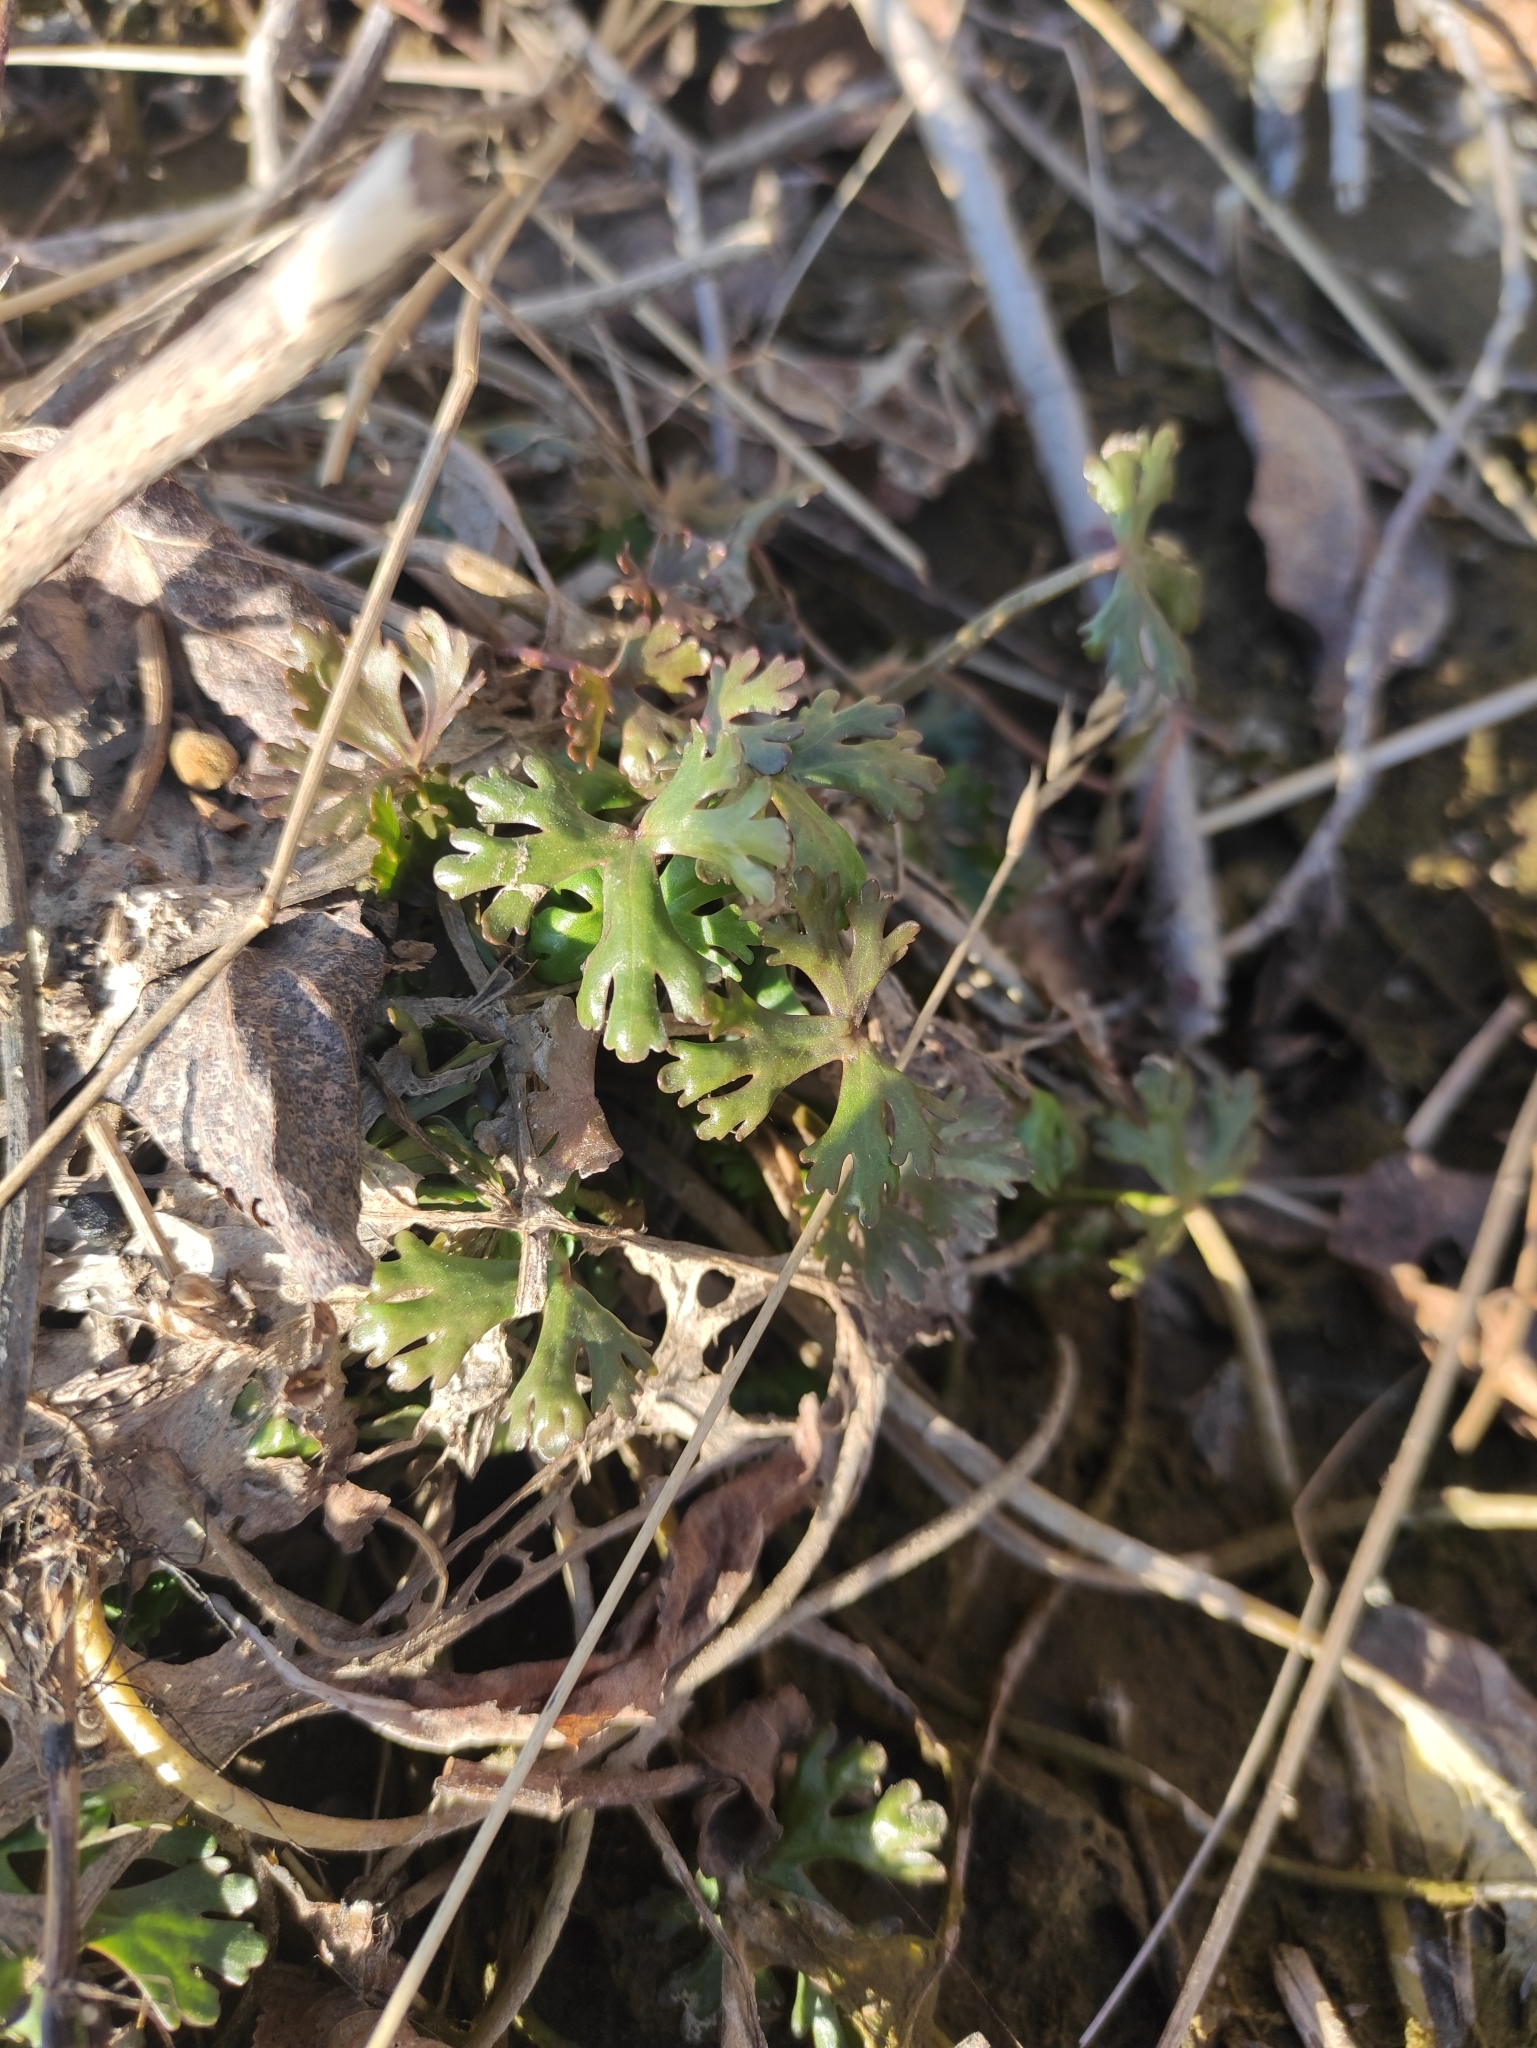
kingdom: Plantae
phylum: Tracheophyta
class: Magnoliopsida
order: Ranunculales
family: Ranunculaceae
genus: Ranunculus
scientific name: Ranunculus sceleratus
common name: Celery-leaved buttercup
